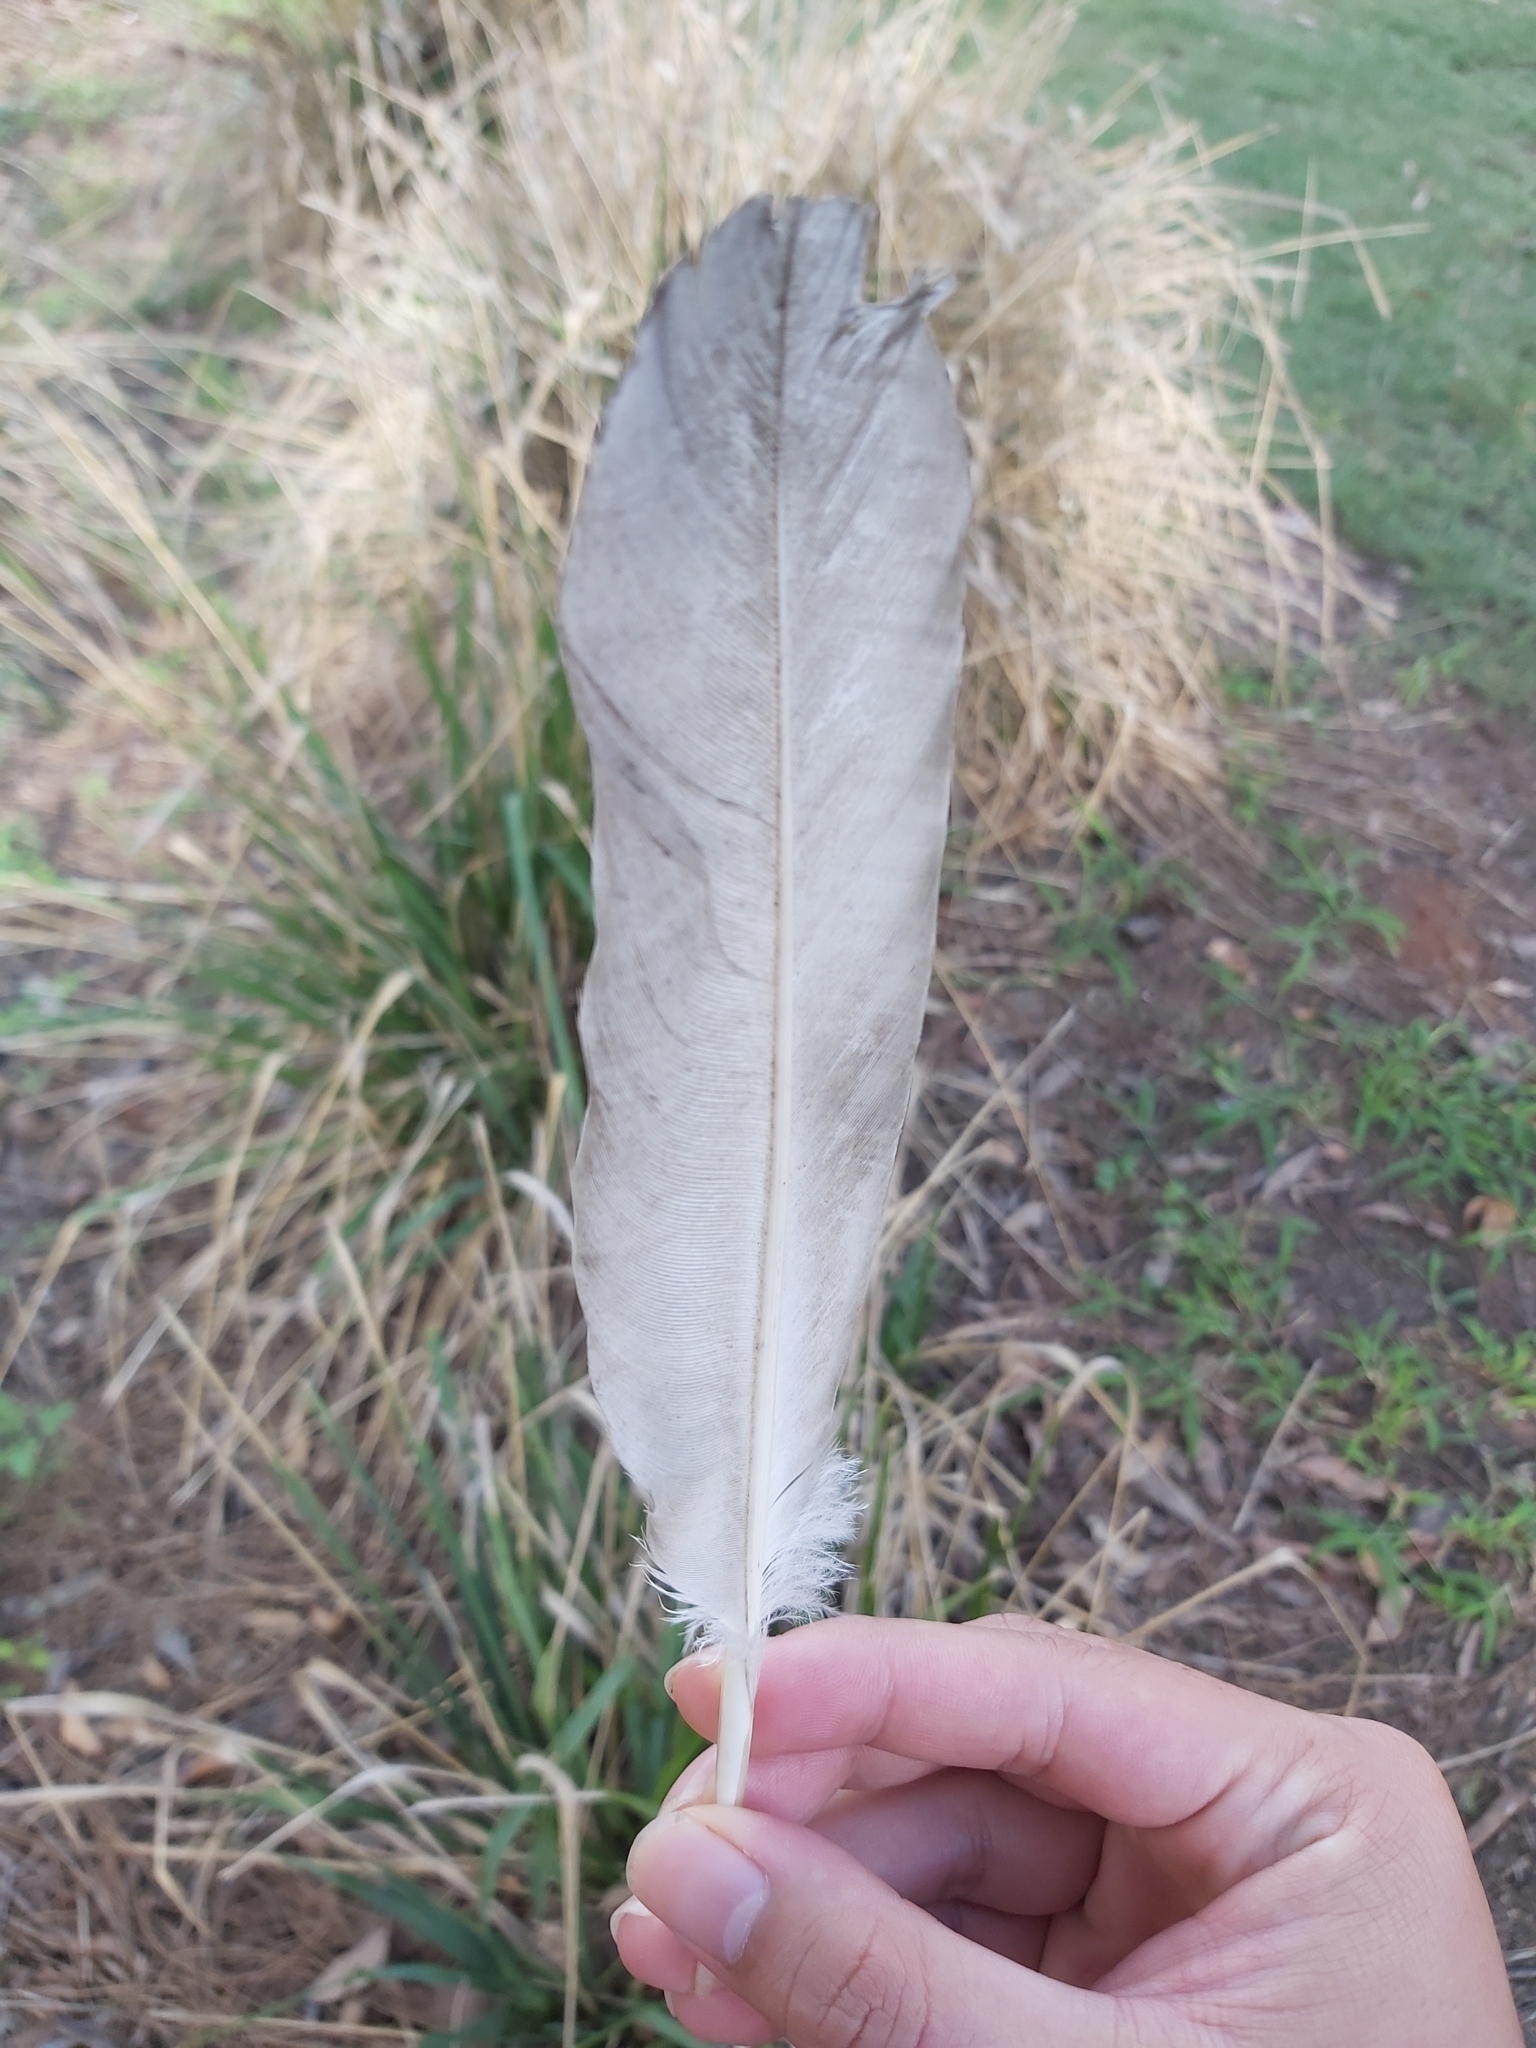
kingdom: Animalia
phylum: Chordata
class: Aves
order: Pelecaniformes
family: Threskiornithidae
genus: Threskiornis
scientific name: Threskiornis molucca
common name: Australian white ibis
